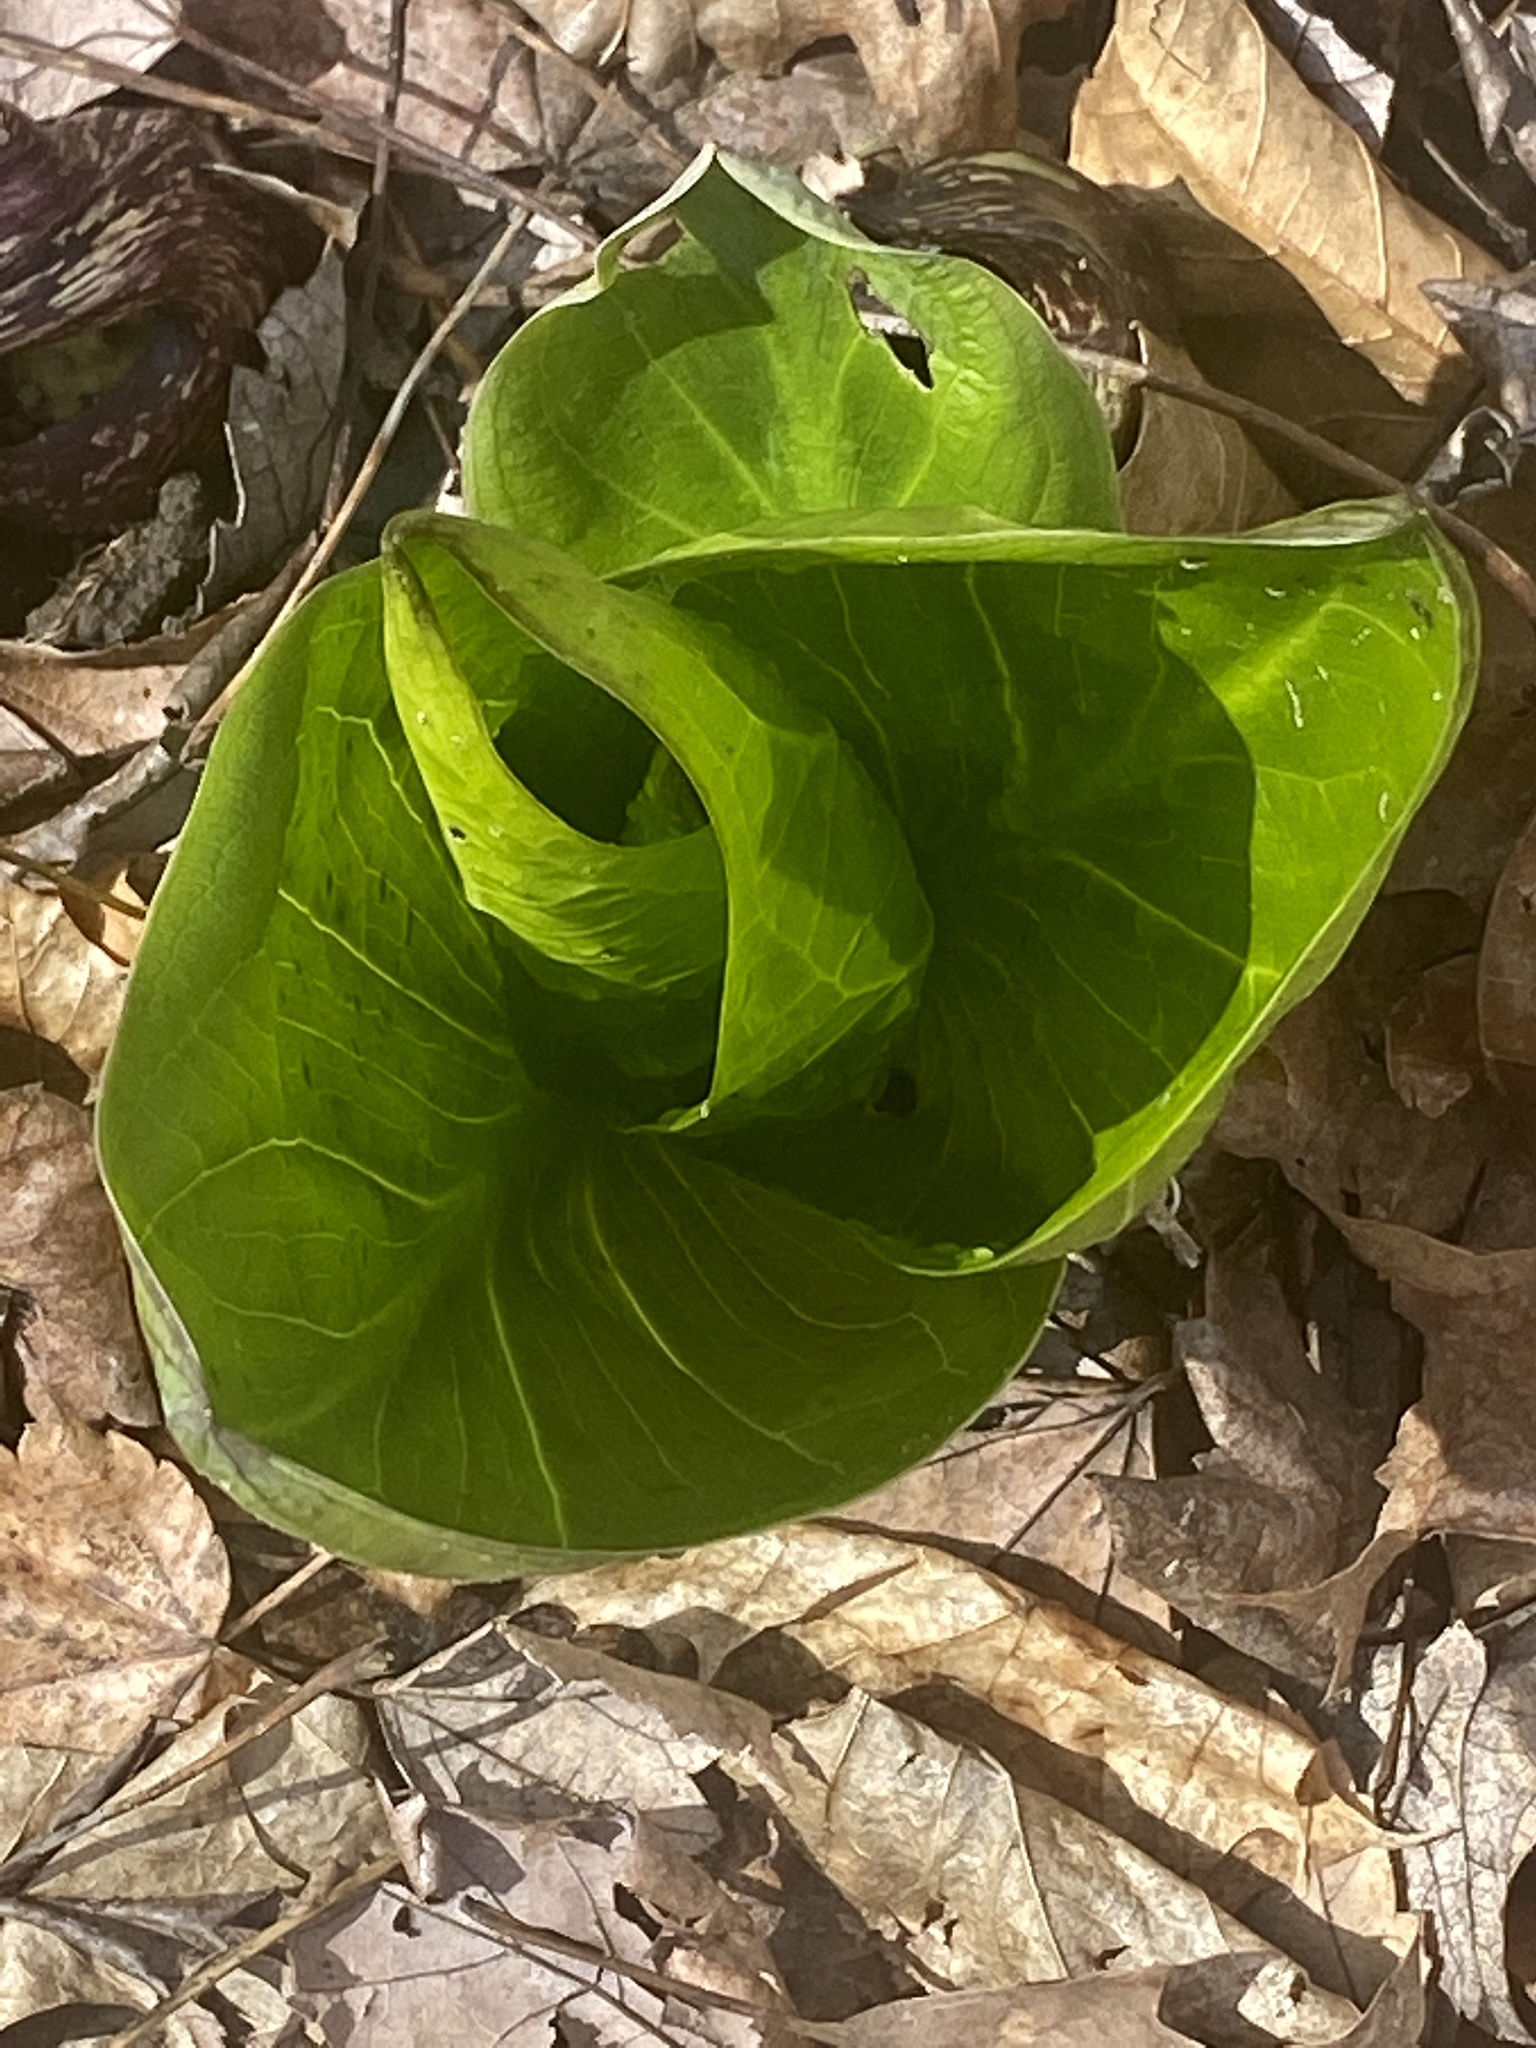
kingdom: Plantae
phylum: Tracheophyta
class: Liliopsida
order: Alismatales
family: Araceae
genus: Symplocarpus
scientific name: Symplocarpus foetidus
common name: Eastern skunk cabbage
